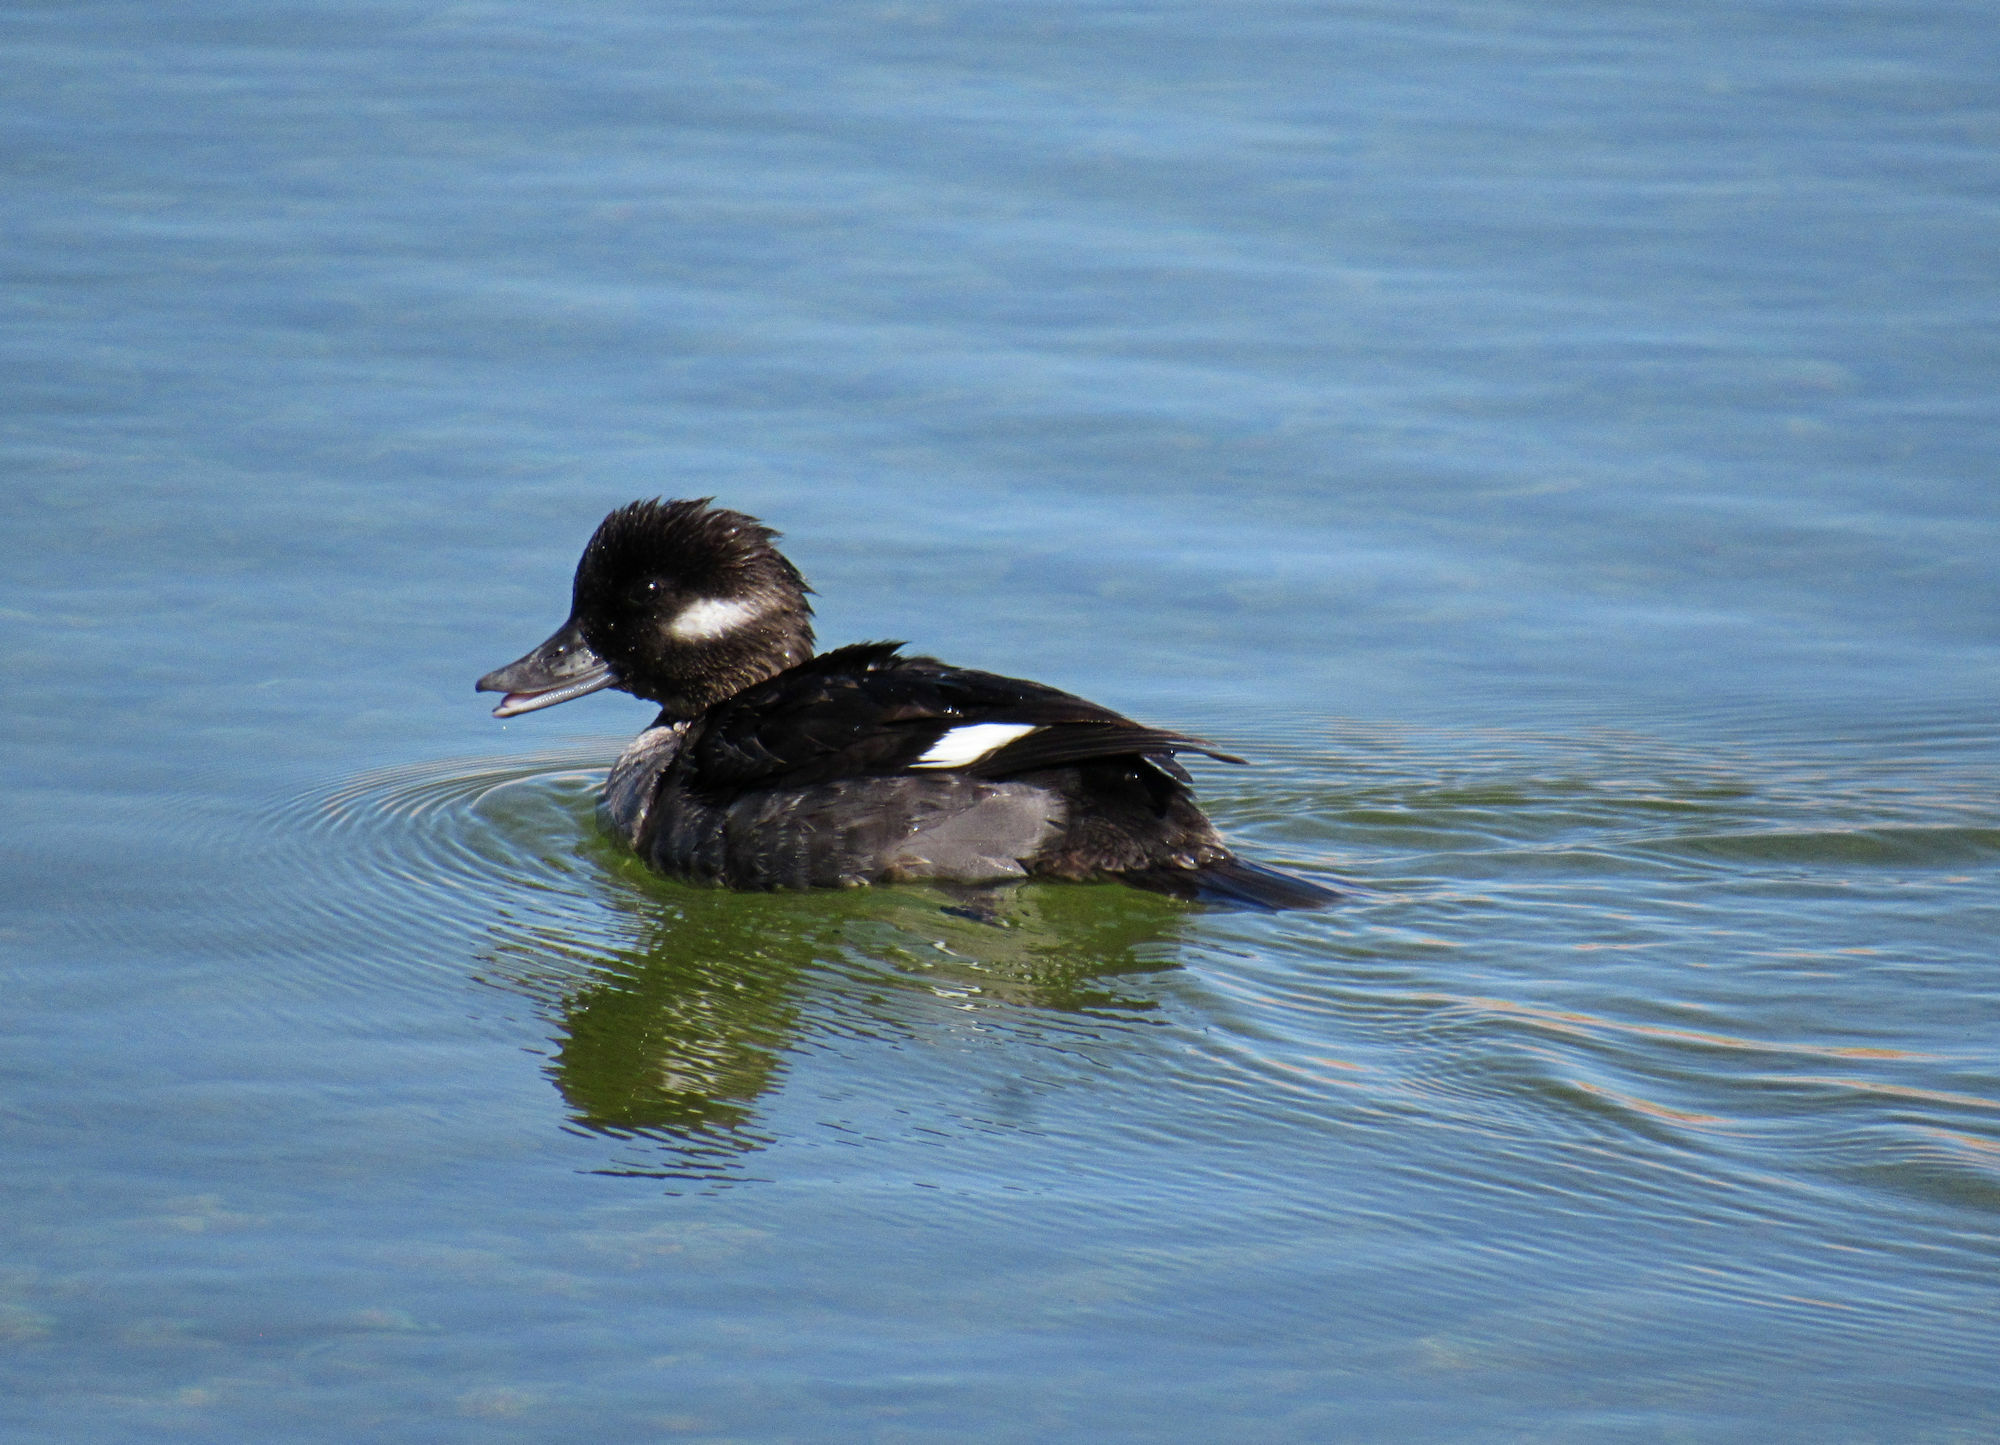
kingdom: Animalia
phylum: Chordata
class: Aves
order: Anseriformes
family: Anatidae
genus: Bucephala
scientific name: Bucephala albeola
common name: Bufflehead
